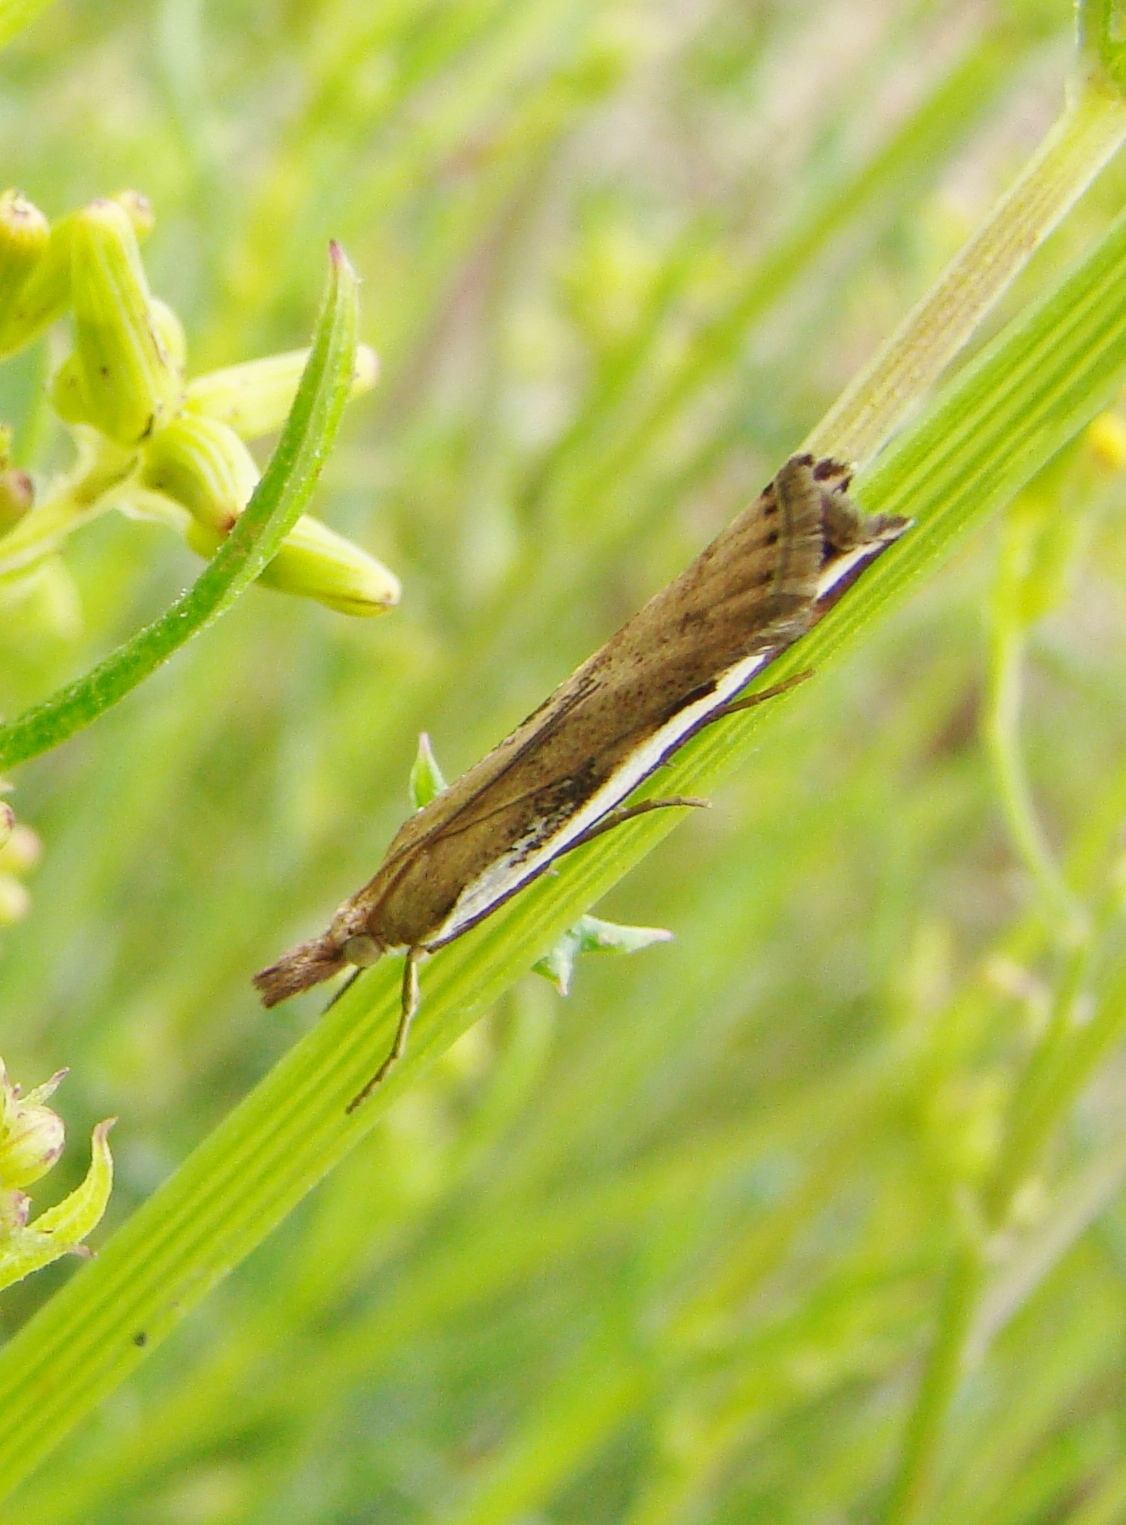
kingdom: Animalia
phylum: Arthropoda
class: Insecta
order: Lepidoptera
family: Crambidae
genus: Orocrambus
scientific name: Orocrambus flexuosellus
